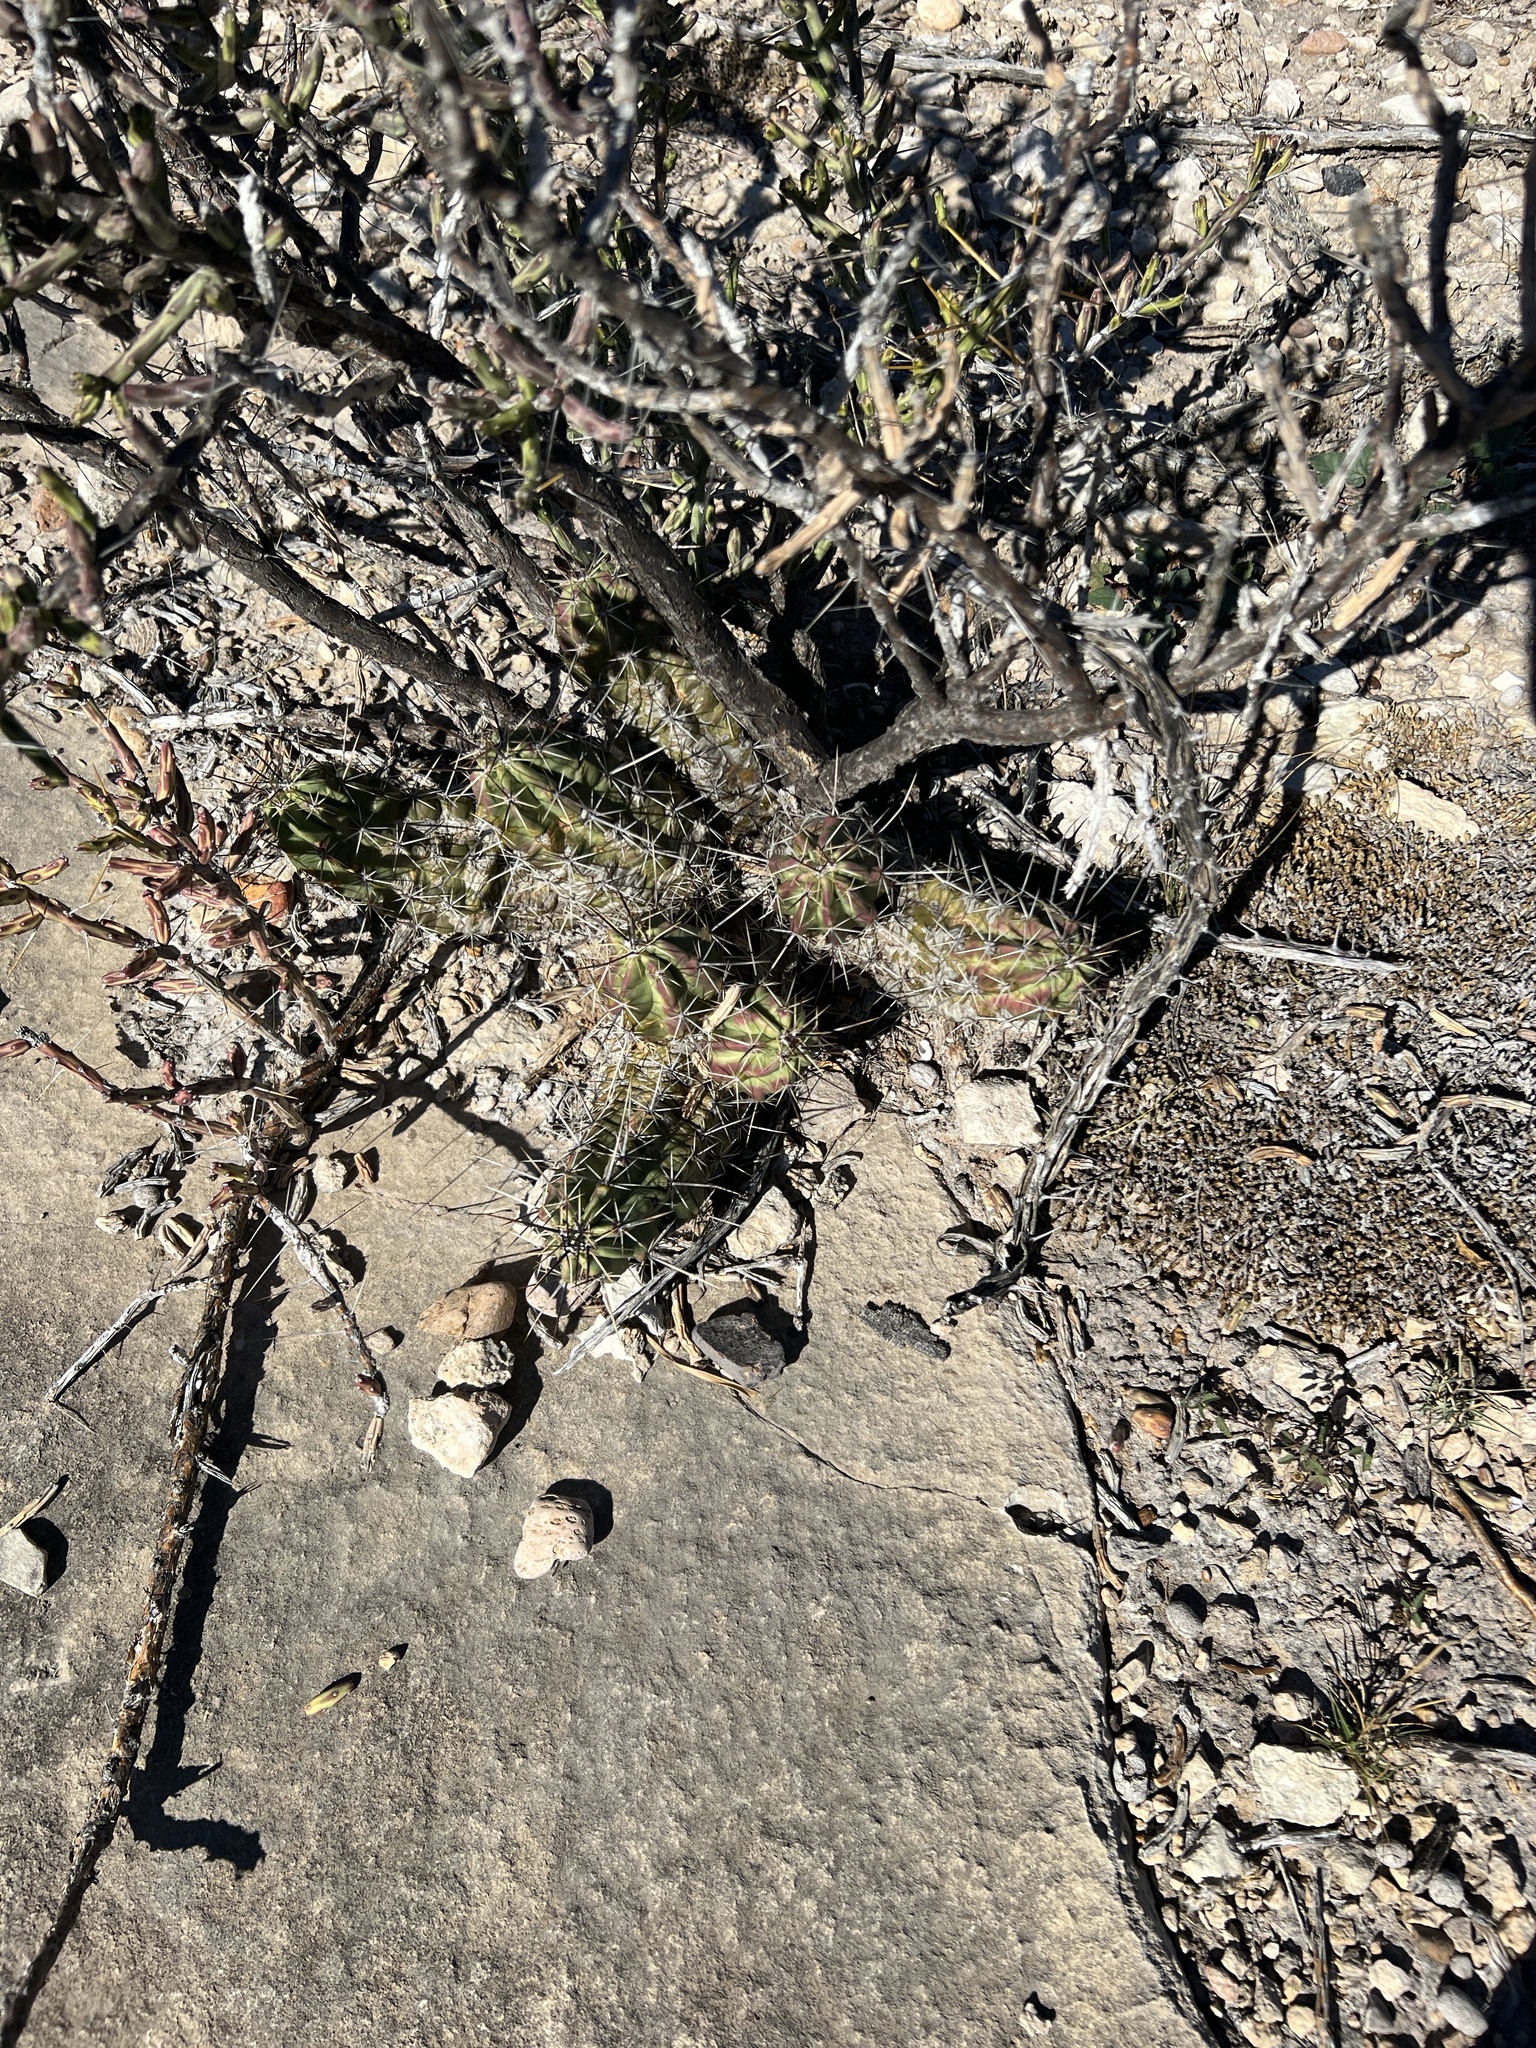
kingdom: Plantae
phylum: Tracheophyta
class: Magnoliopsida
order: Caryophyllales
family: Cactaceae
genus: Echinocereus
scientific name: Echinocereus enneacanthus
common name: Pitaya
